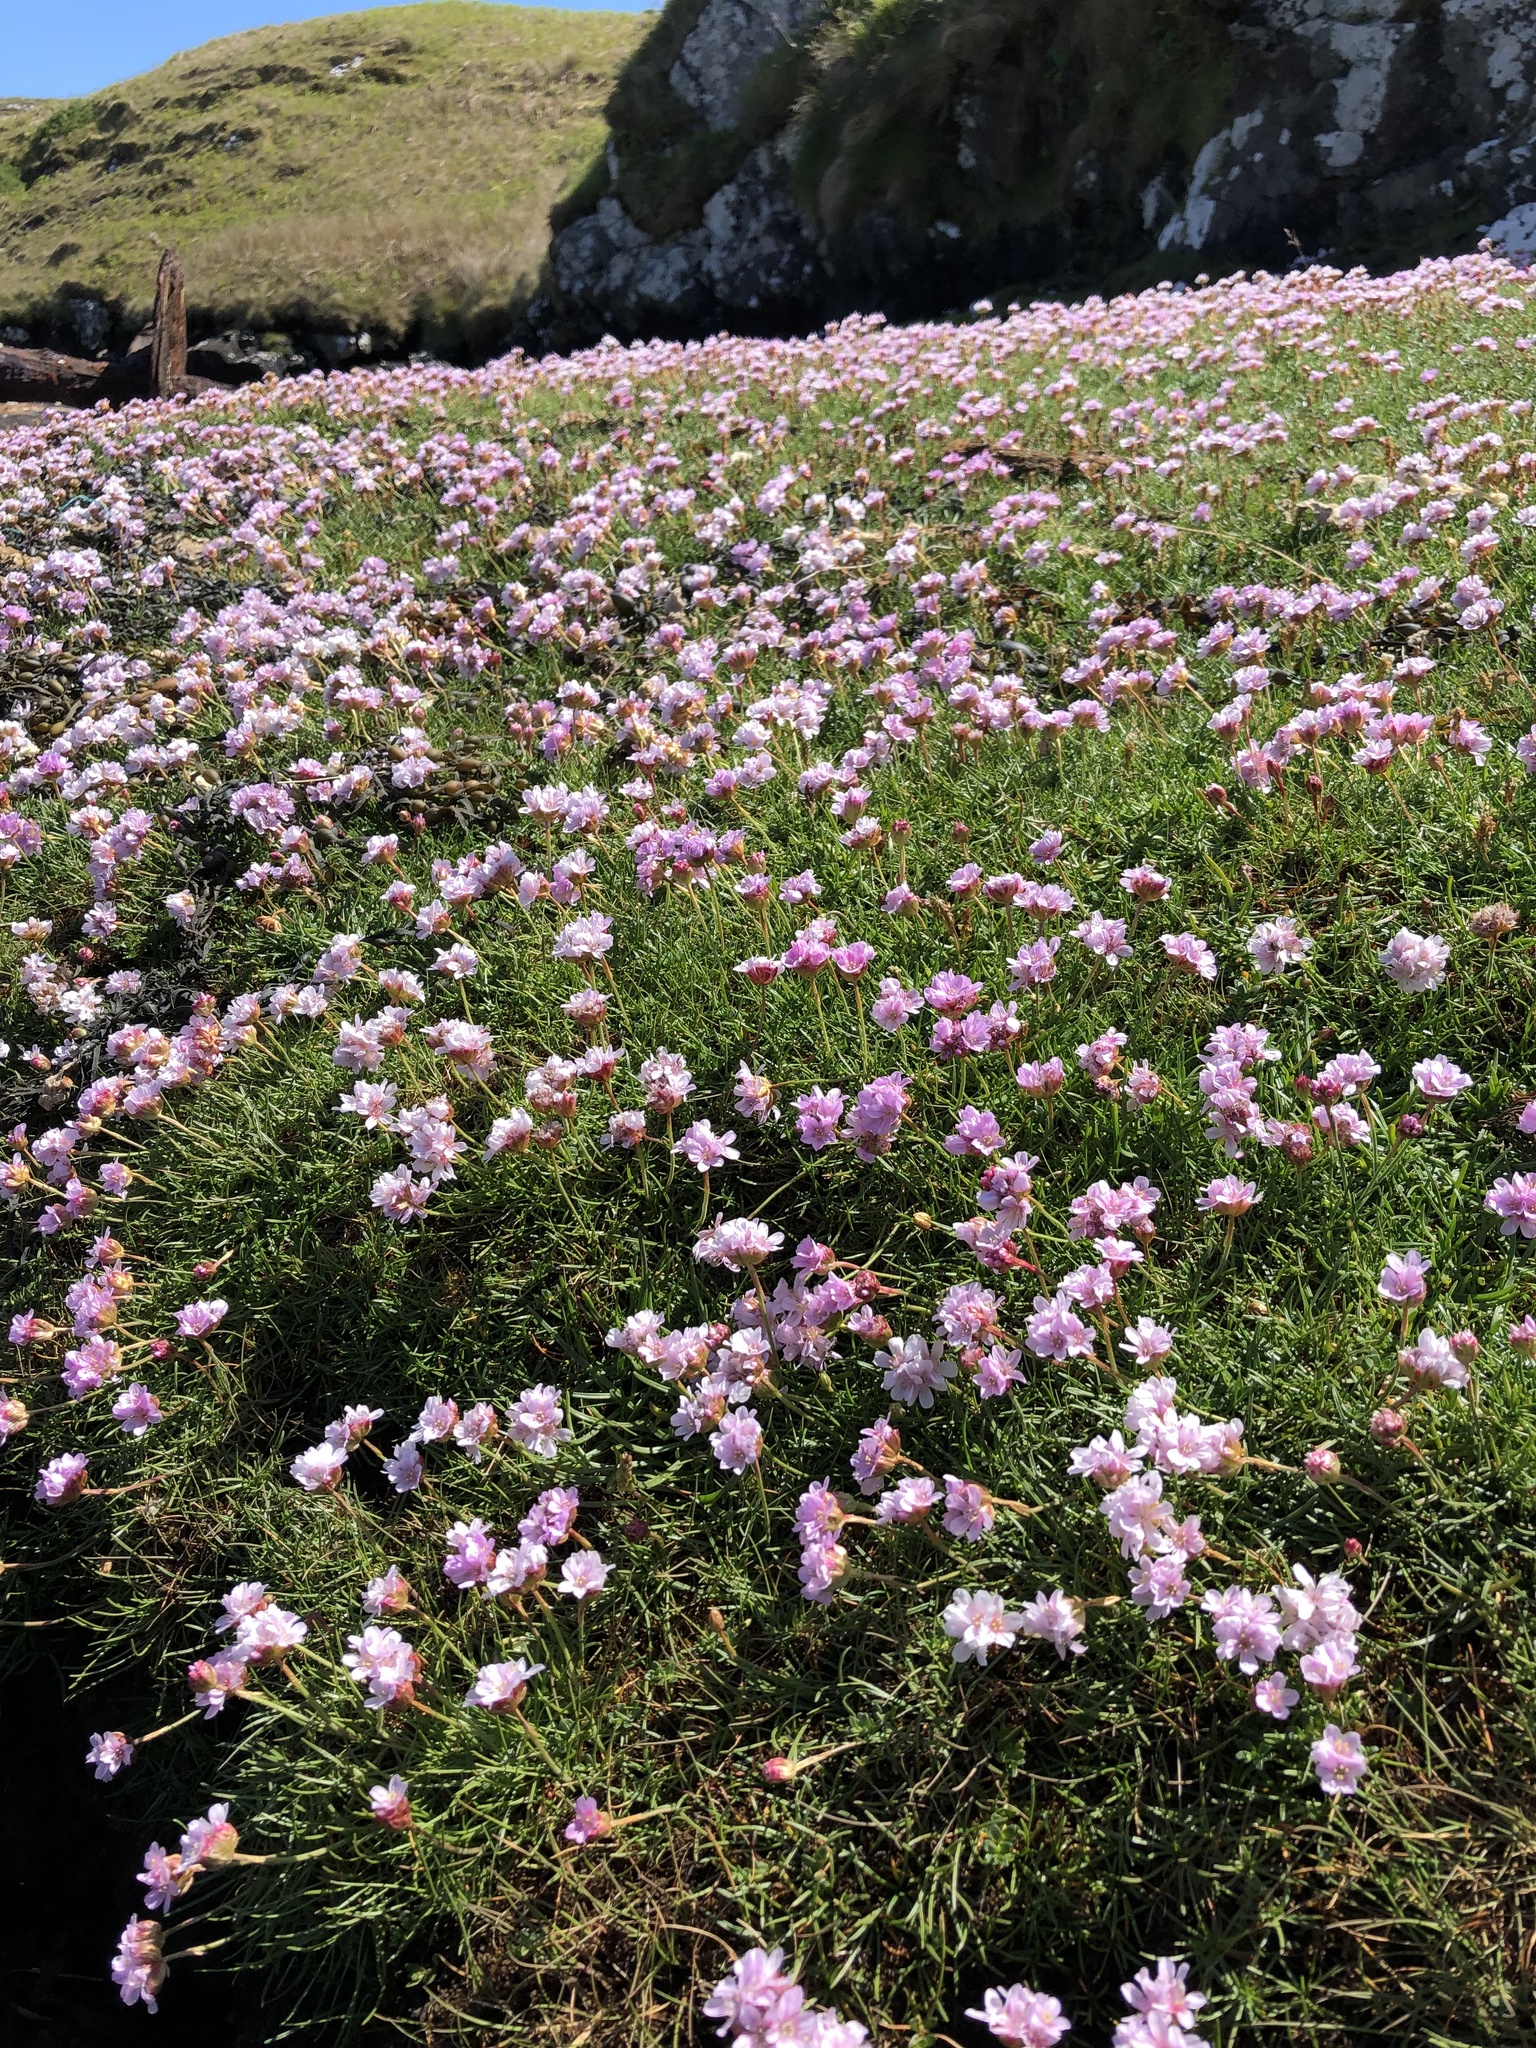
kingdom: Plantae
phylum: Tracheophyta
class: Magnoliopsida
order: Caryophyllales
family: Plumbaginaceae
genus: Armeria
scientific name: Armeria maritima
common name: Thrift
